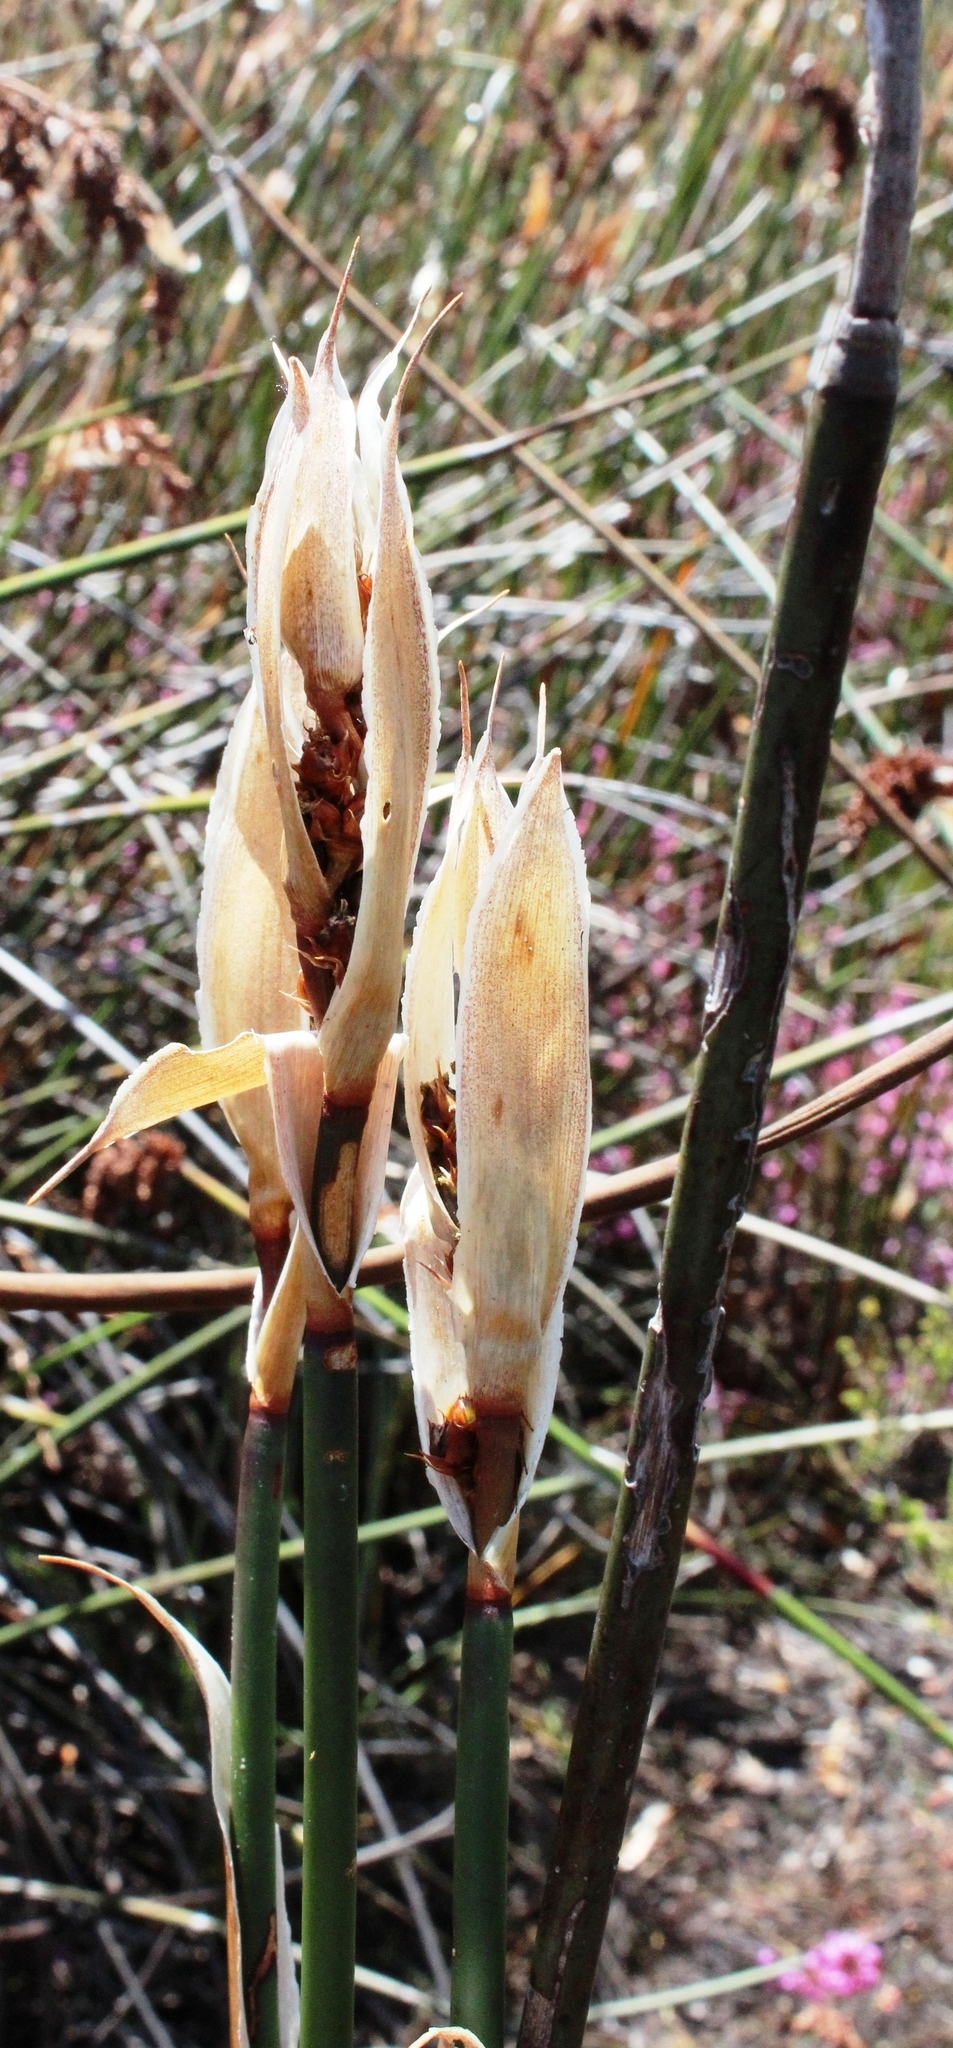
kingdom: Plantae
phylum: Tracheophyta
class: Liliopsida
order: Poales
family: Restionaceae
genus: Elegia
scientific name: Elegia mucronata
